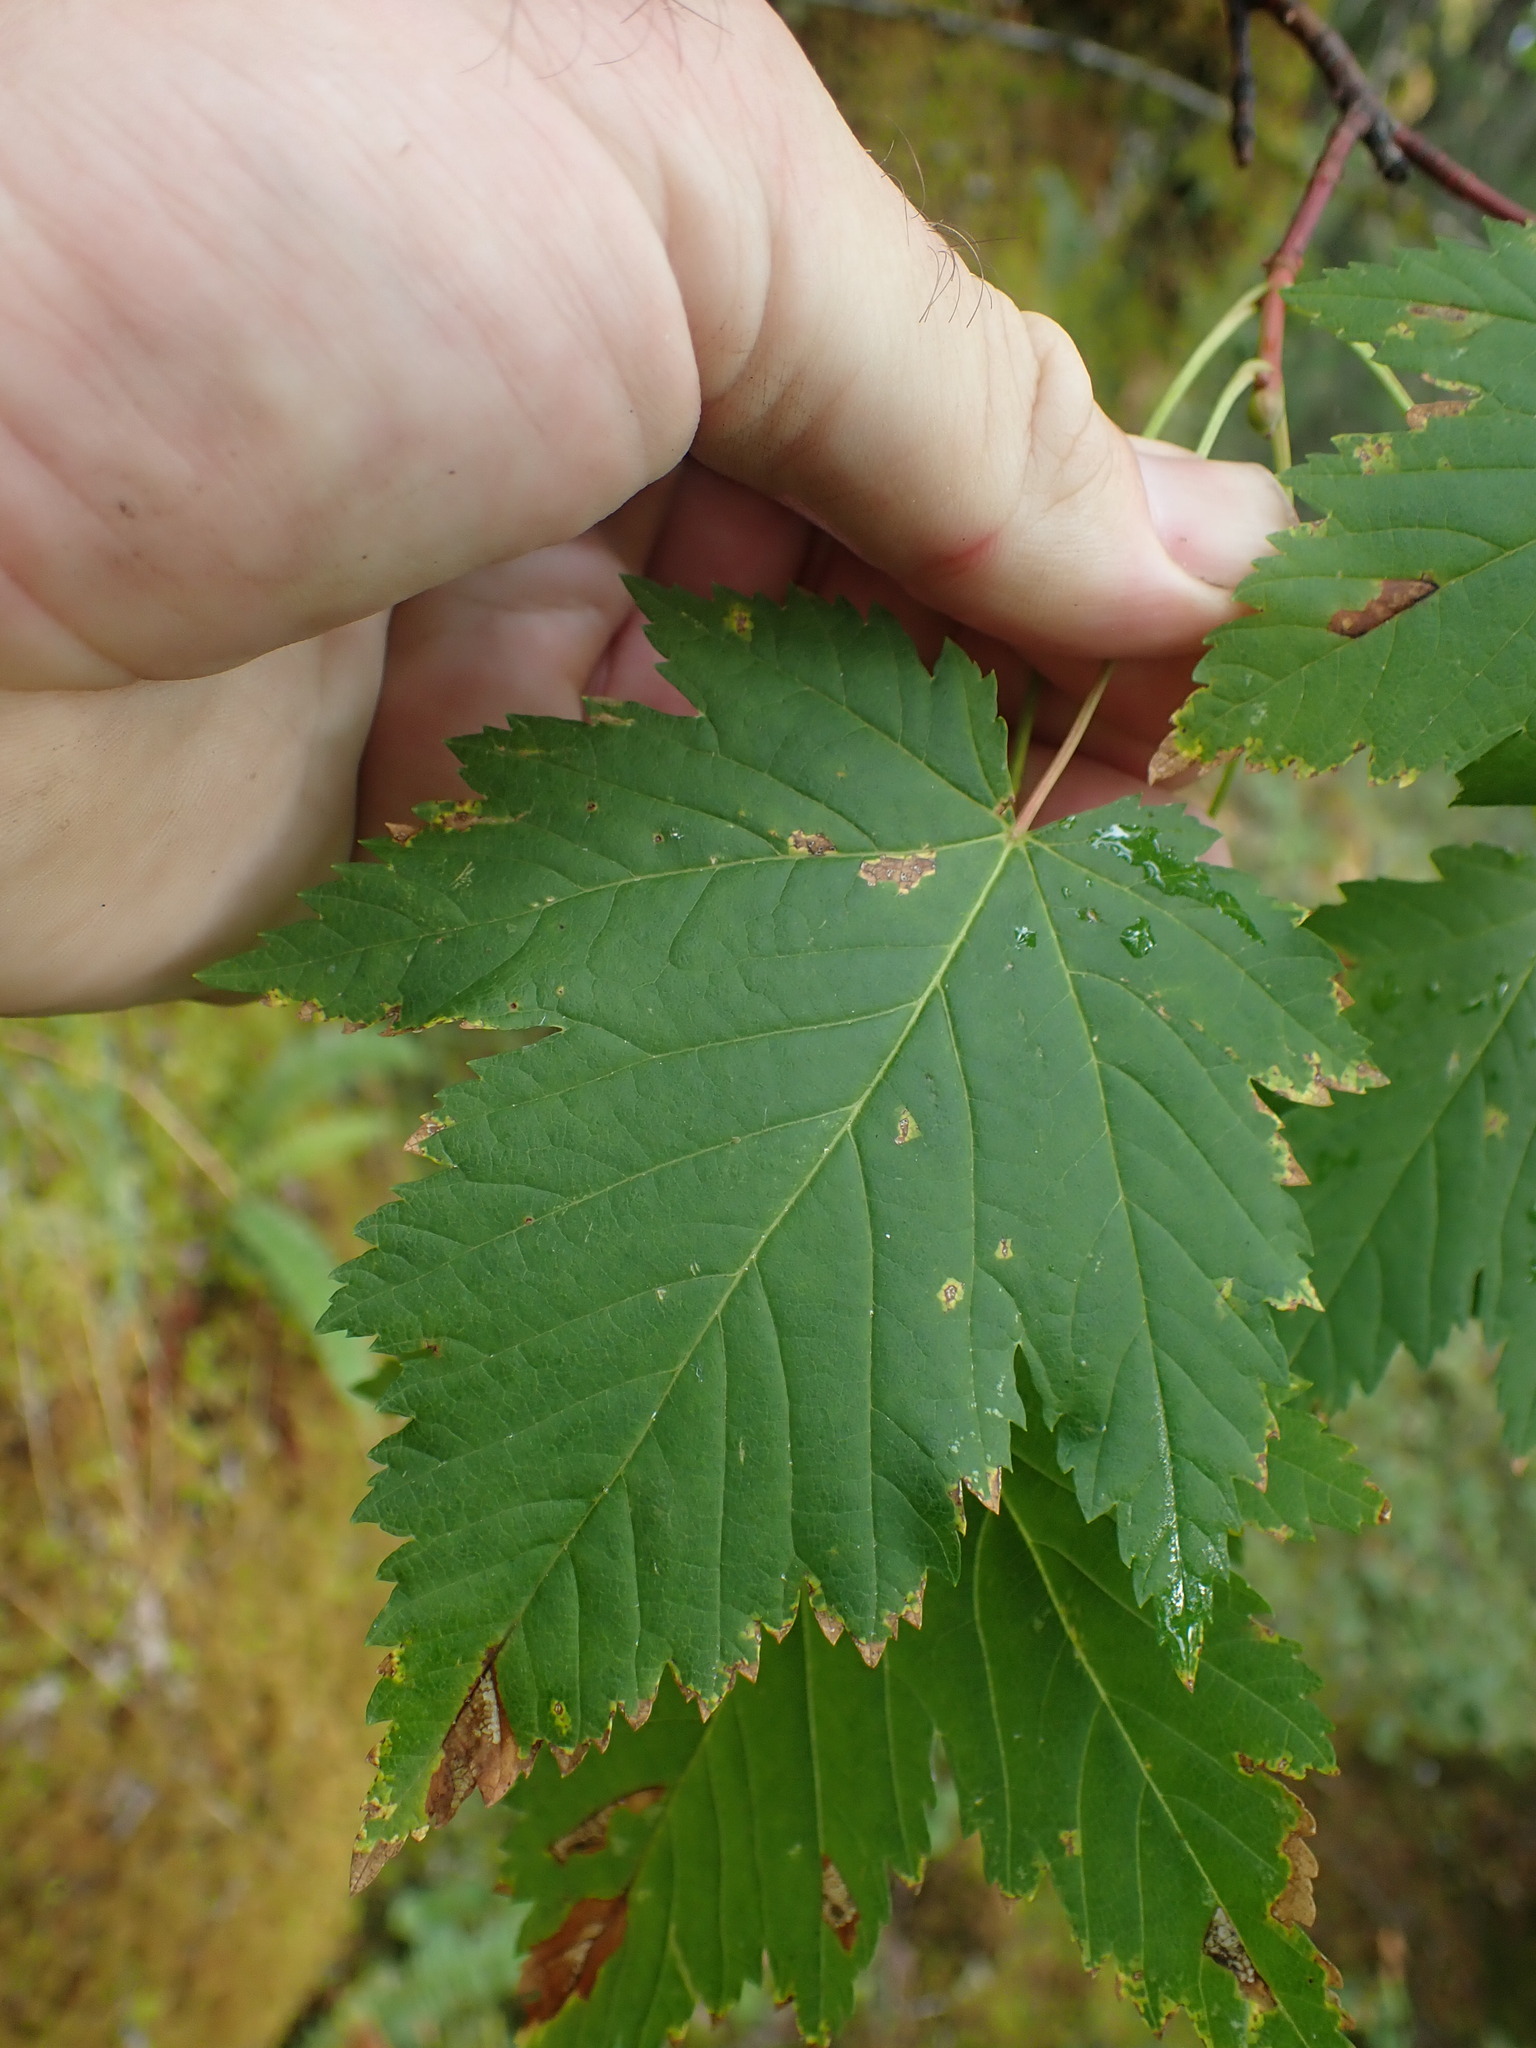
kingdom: Plantae
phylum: Tracheophyta
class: Magnoliopsida
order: Sapindales
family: Sapindaceae
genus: Acer
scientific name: Acer glabrum
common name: Rocky mountain maple
